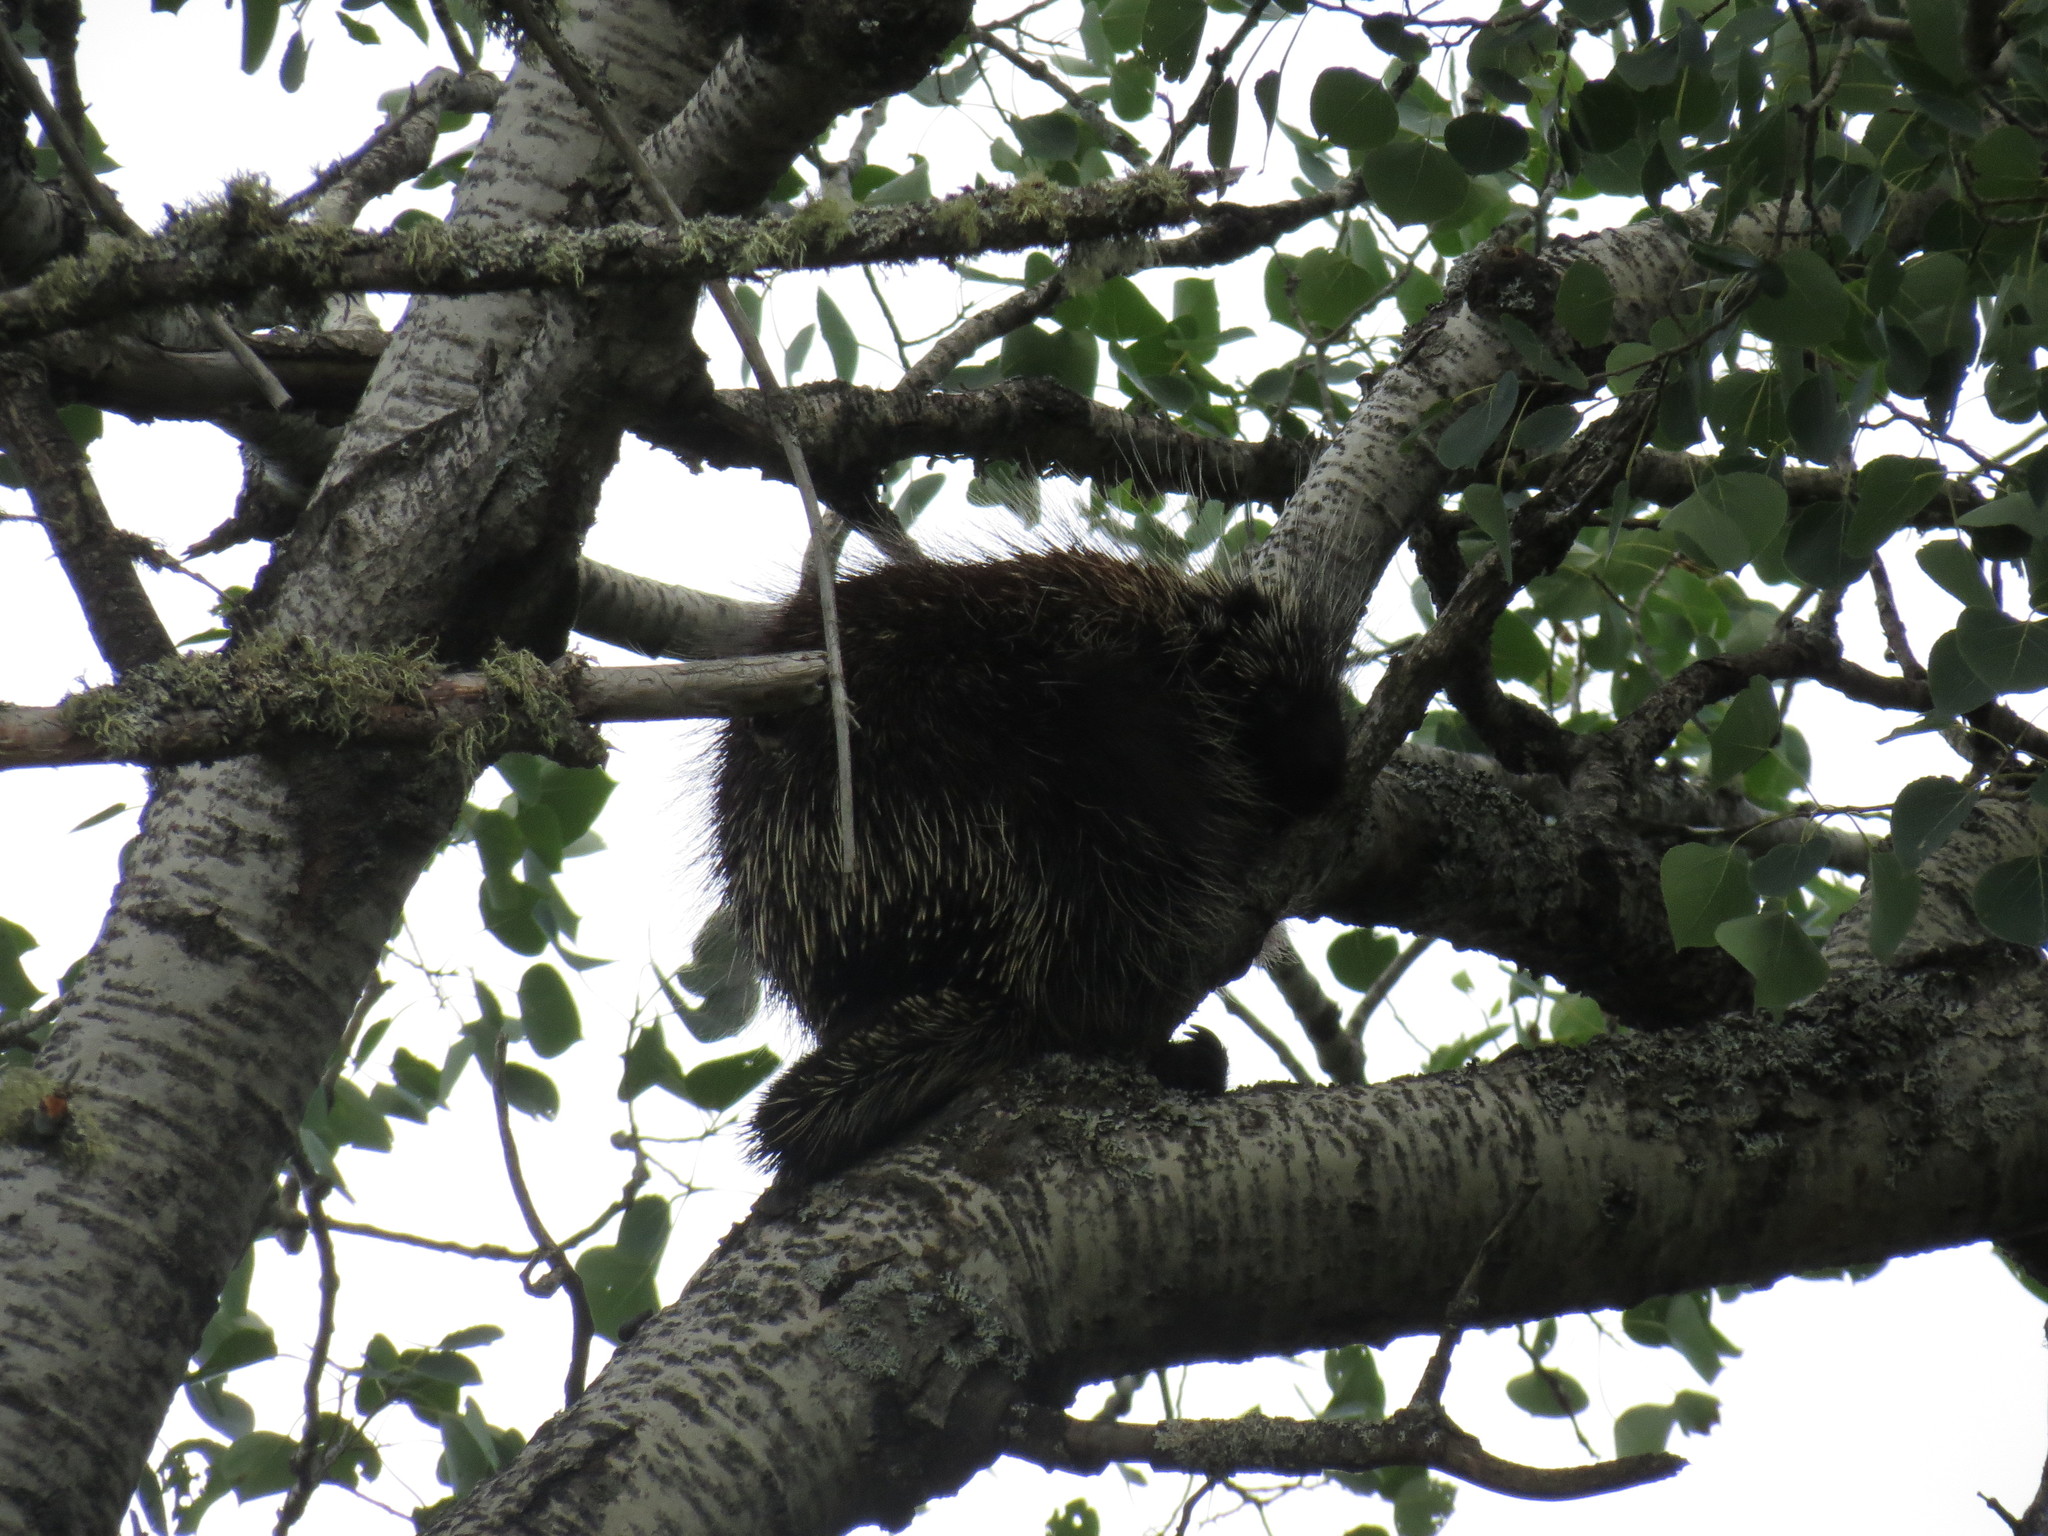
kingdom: Animalia
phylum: Chordata
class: Mammalia
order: Rodentia
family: Erethizontidae
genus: Erethizon
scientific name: Erethizon dorsatus
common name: North american porcupine
